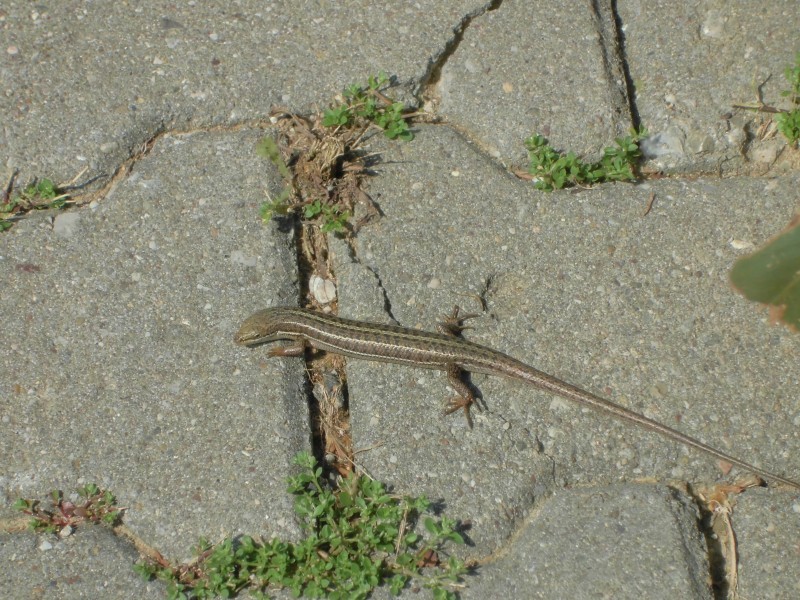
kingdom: Animalia
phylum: Chordata
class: Squamata
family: Scincidae
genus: Heremites
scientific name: Heremites vittatus
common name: Bridled mabuya
